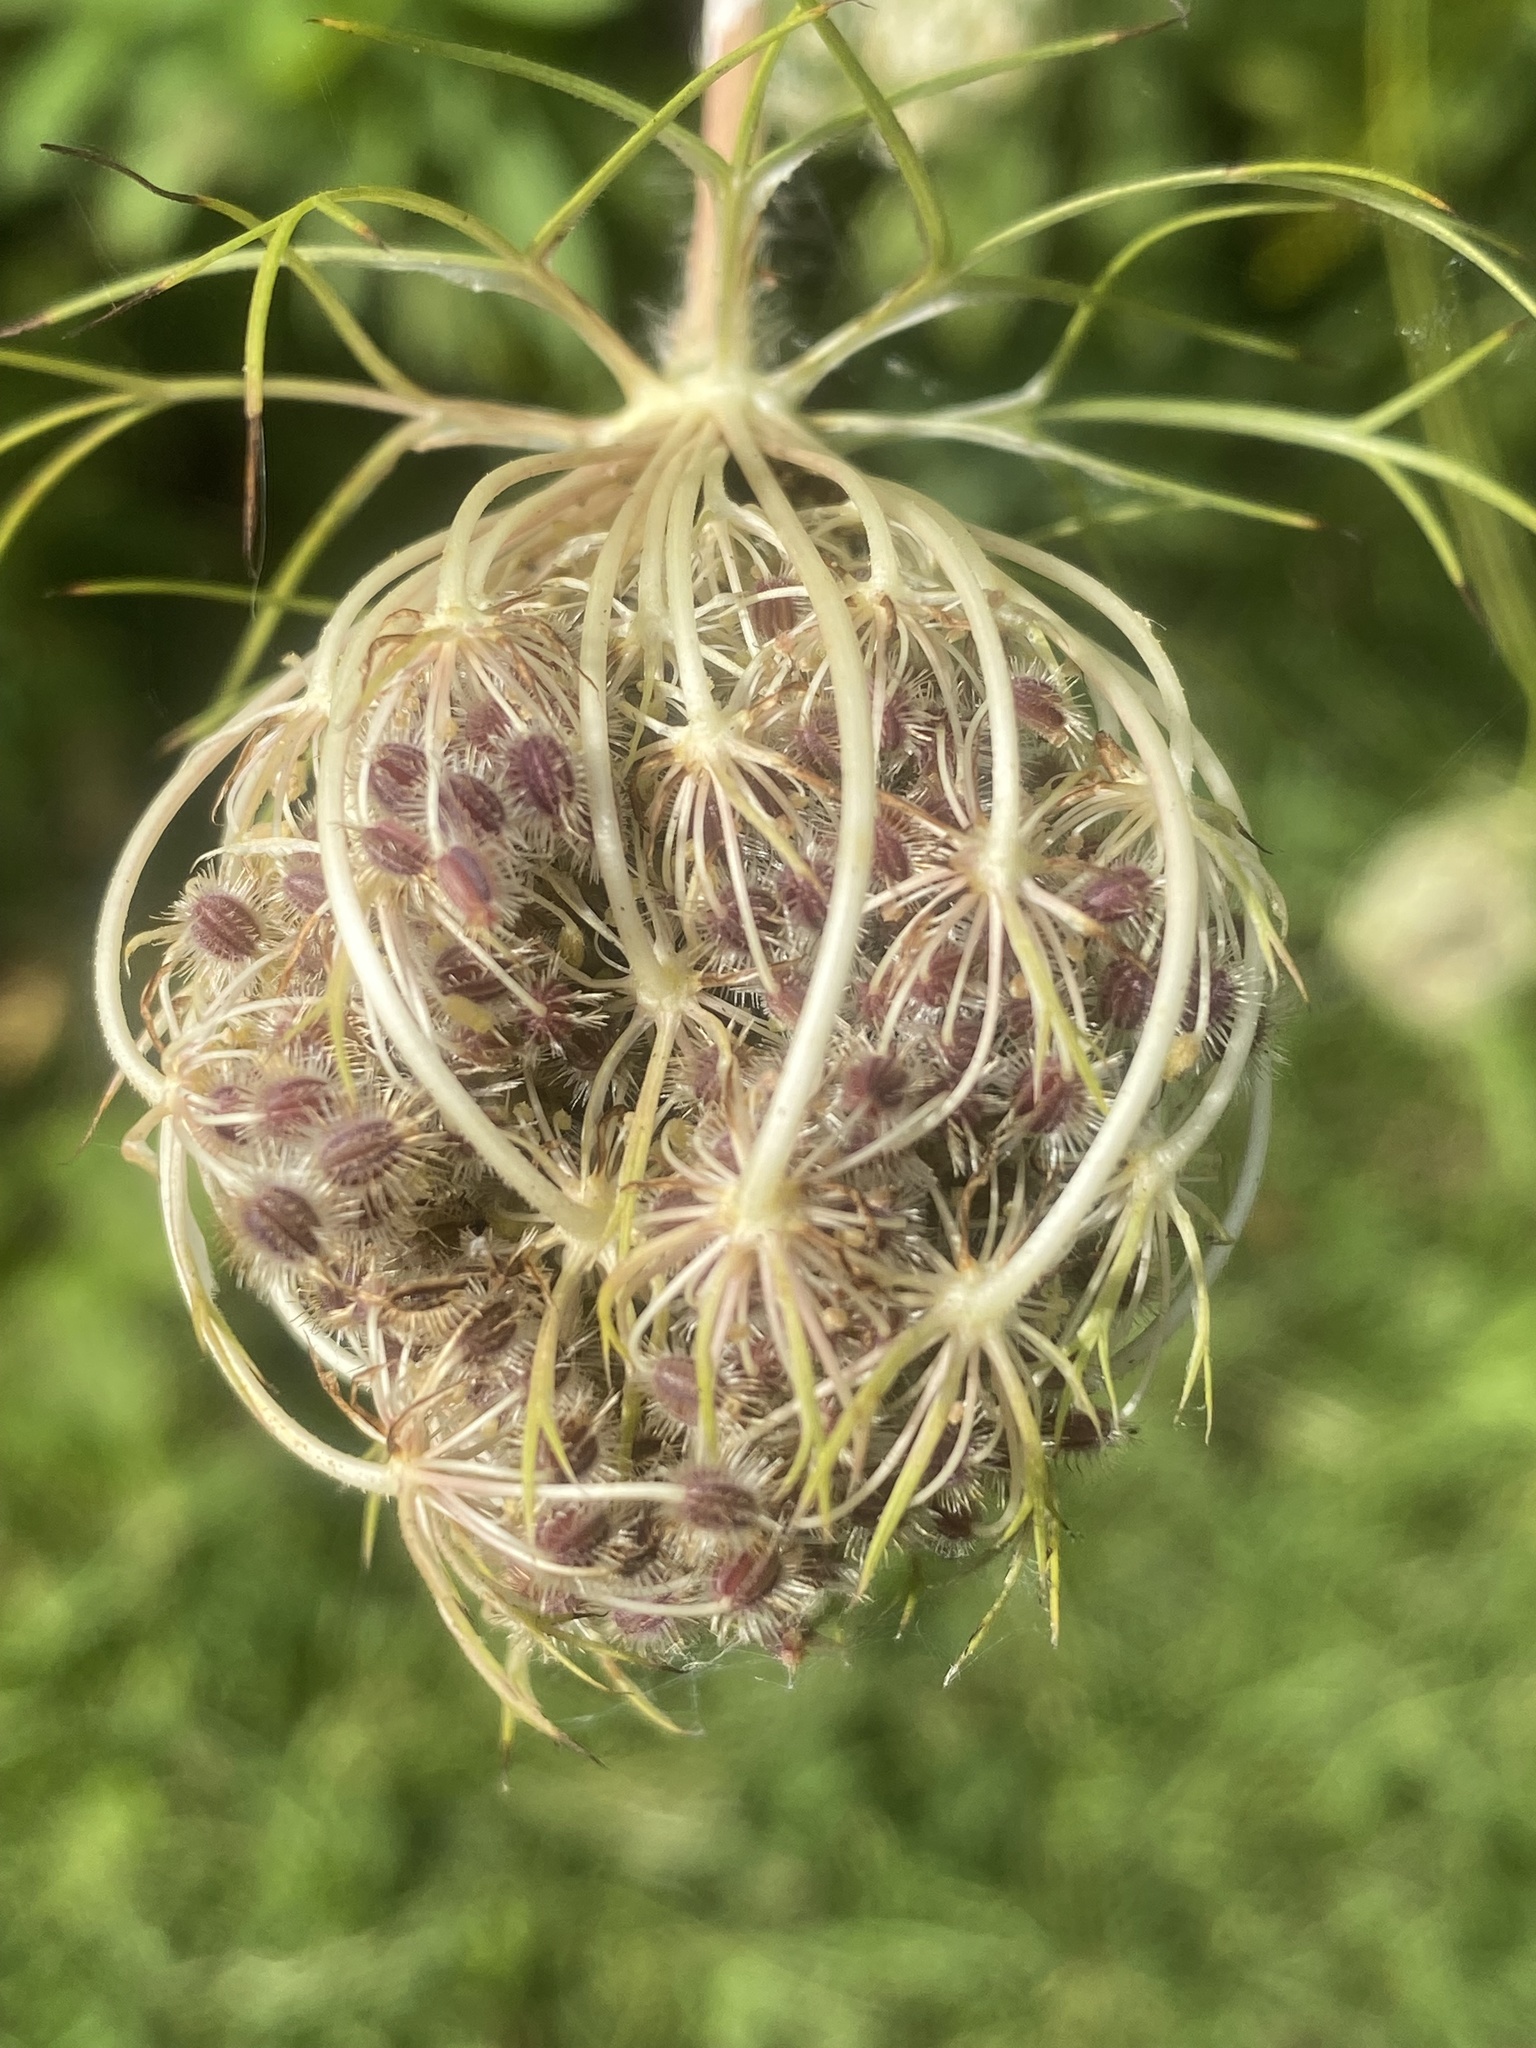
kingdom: Plantae
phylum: Tracheophyta
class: Magnoliopsida
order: Apiales
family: Apiaceae
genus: Daucus
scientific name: Daucus carota
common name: Wild carrot
